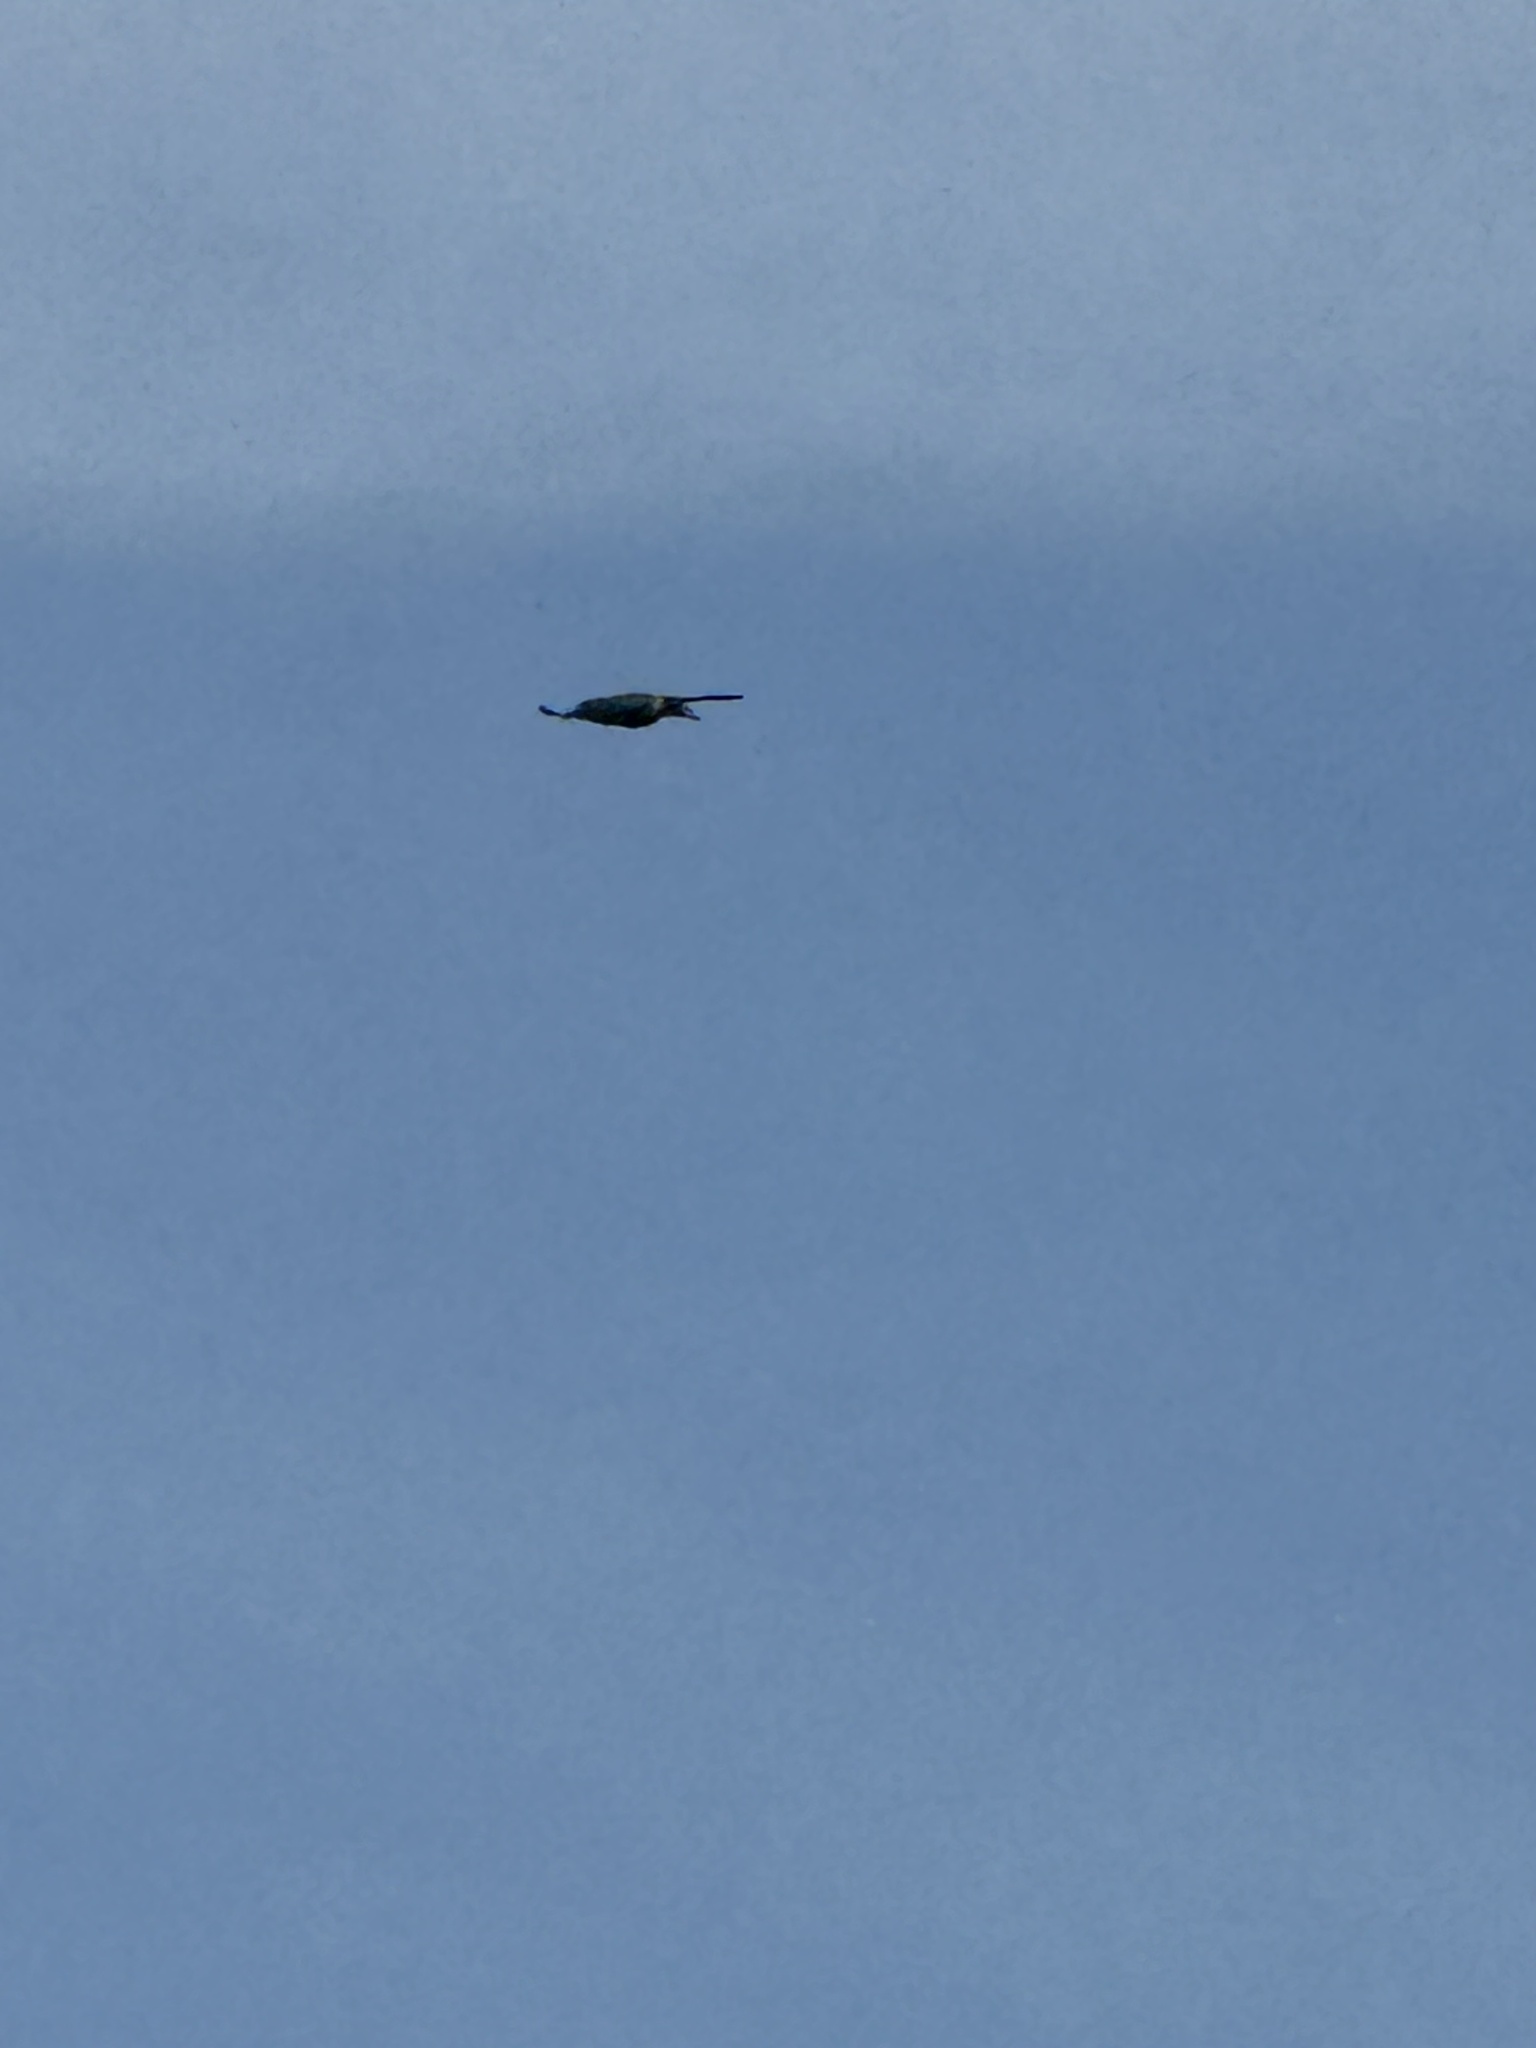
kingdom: Animalia
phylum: Chordata
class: Aves
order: Passeriformes
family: Corvidae
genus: Aphelocoma
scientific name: Aphelocoma californica
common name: California scrub-jay
